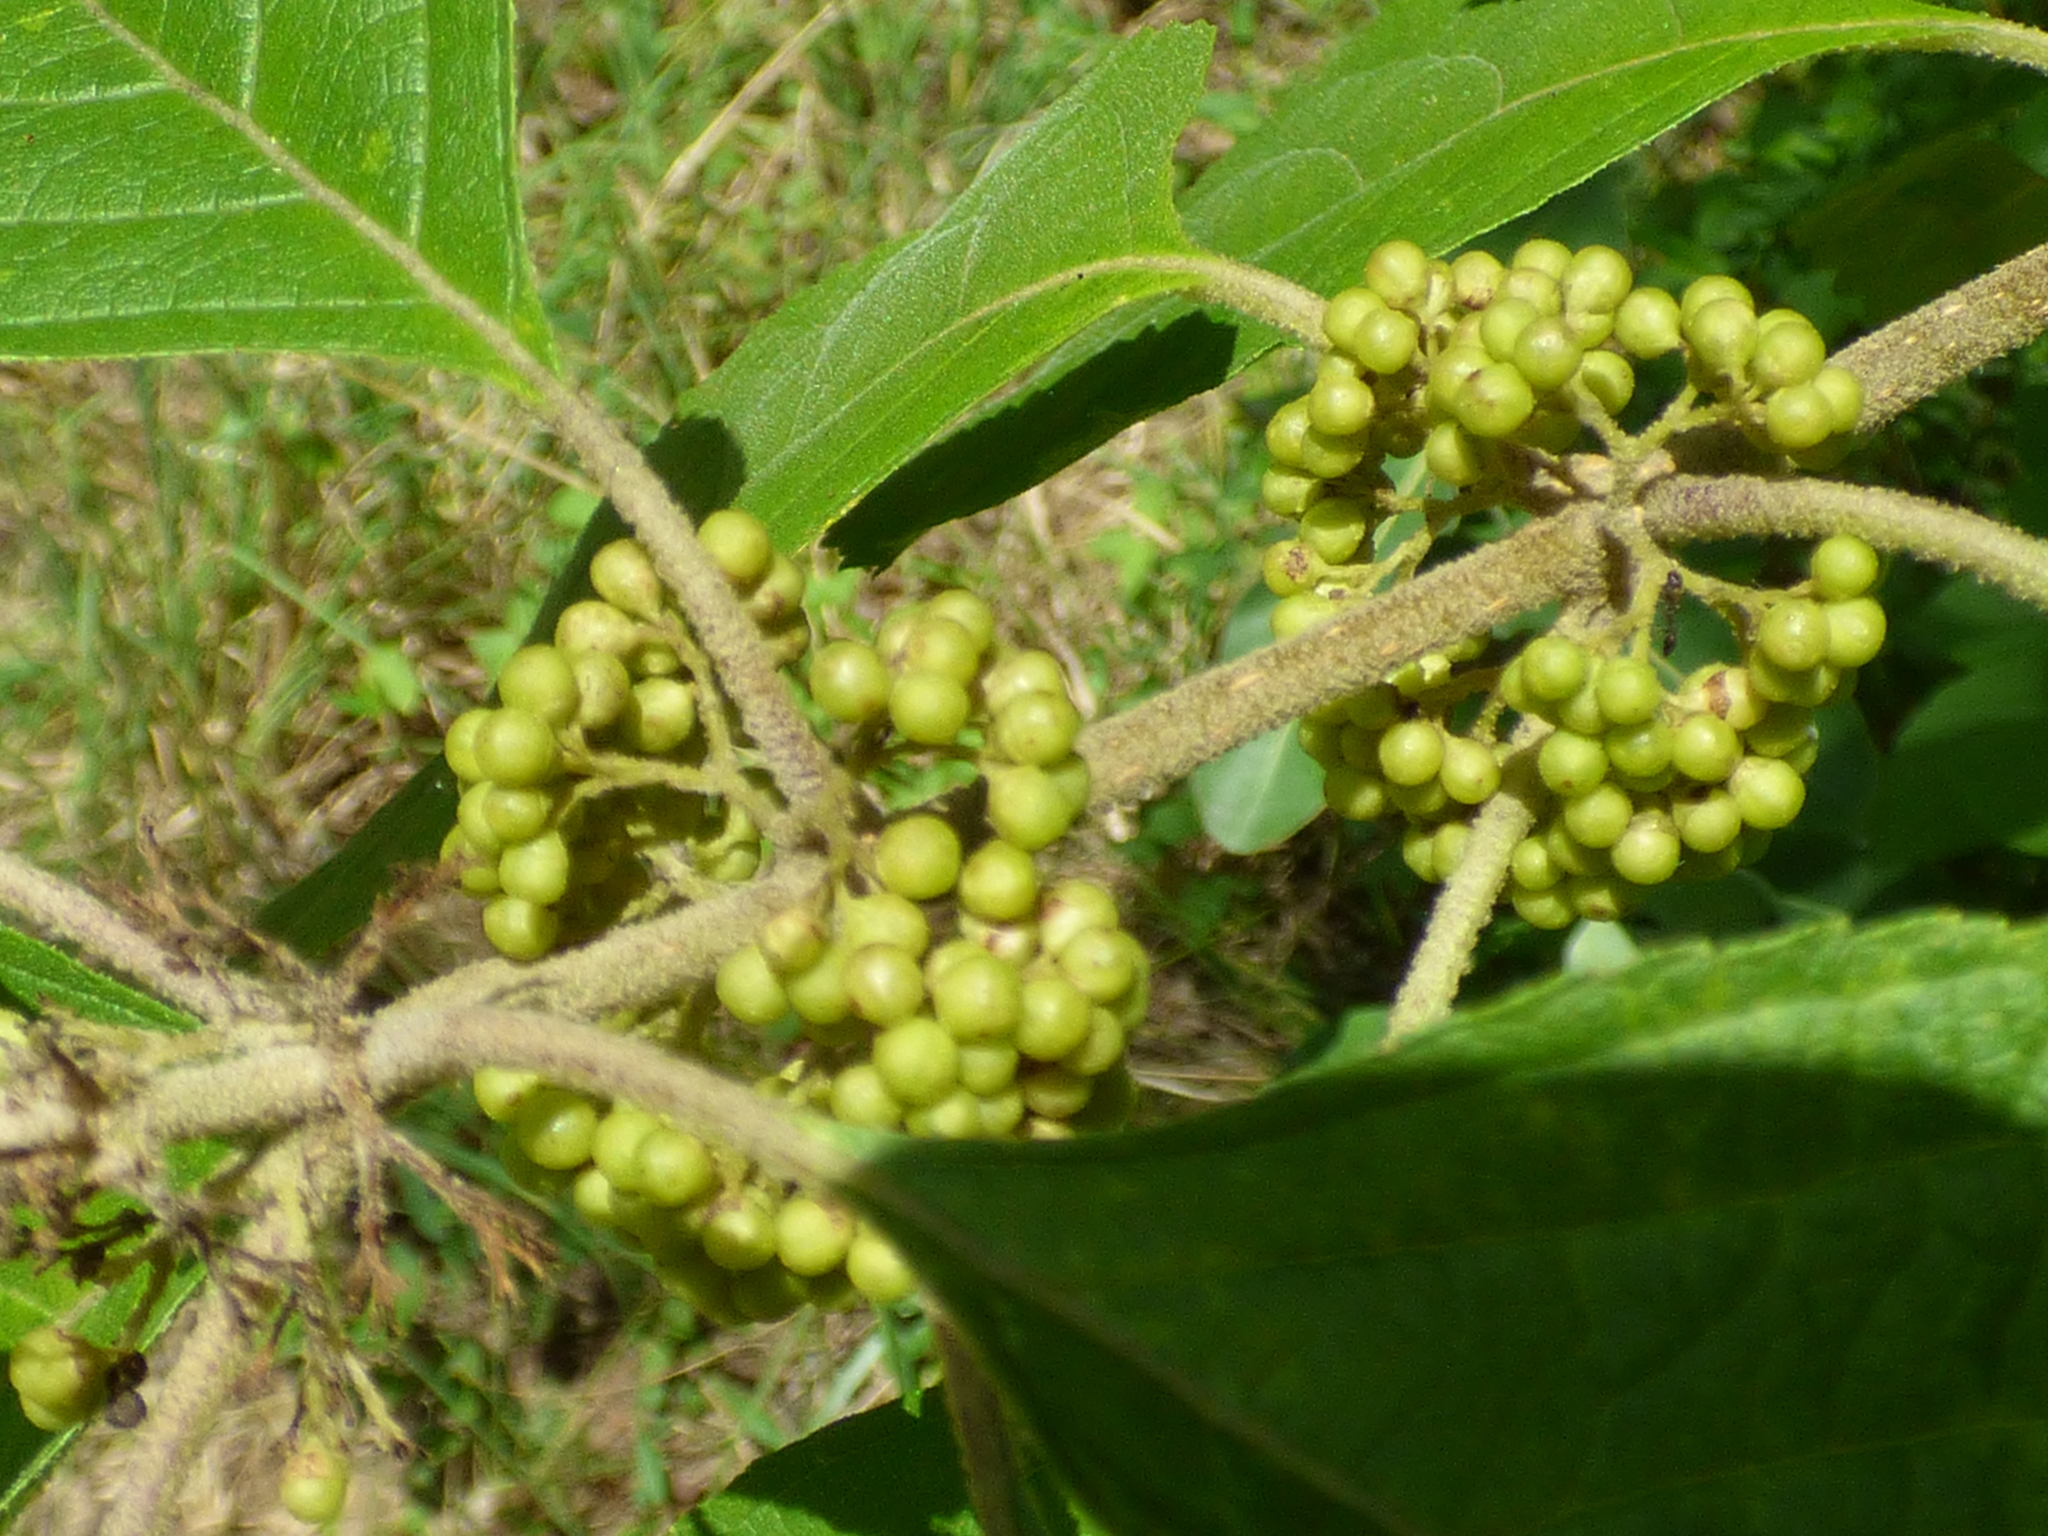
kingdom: Plantae
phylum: Tracheophyta
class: Magnoliopsida
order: Lamiales
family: Lamiaceae
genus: Callicarpa
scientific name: Callicarpa americana
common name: American beautyberry
